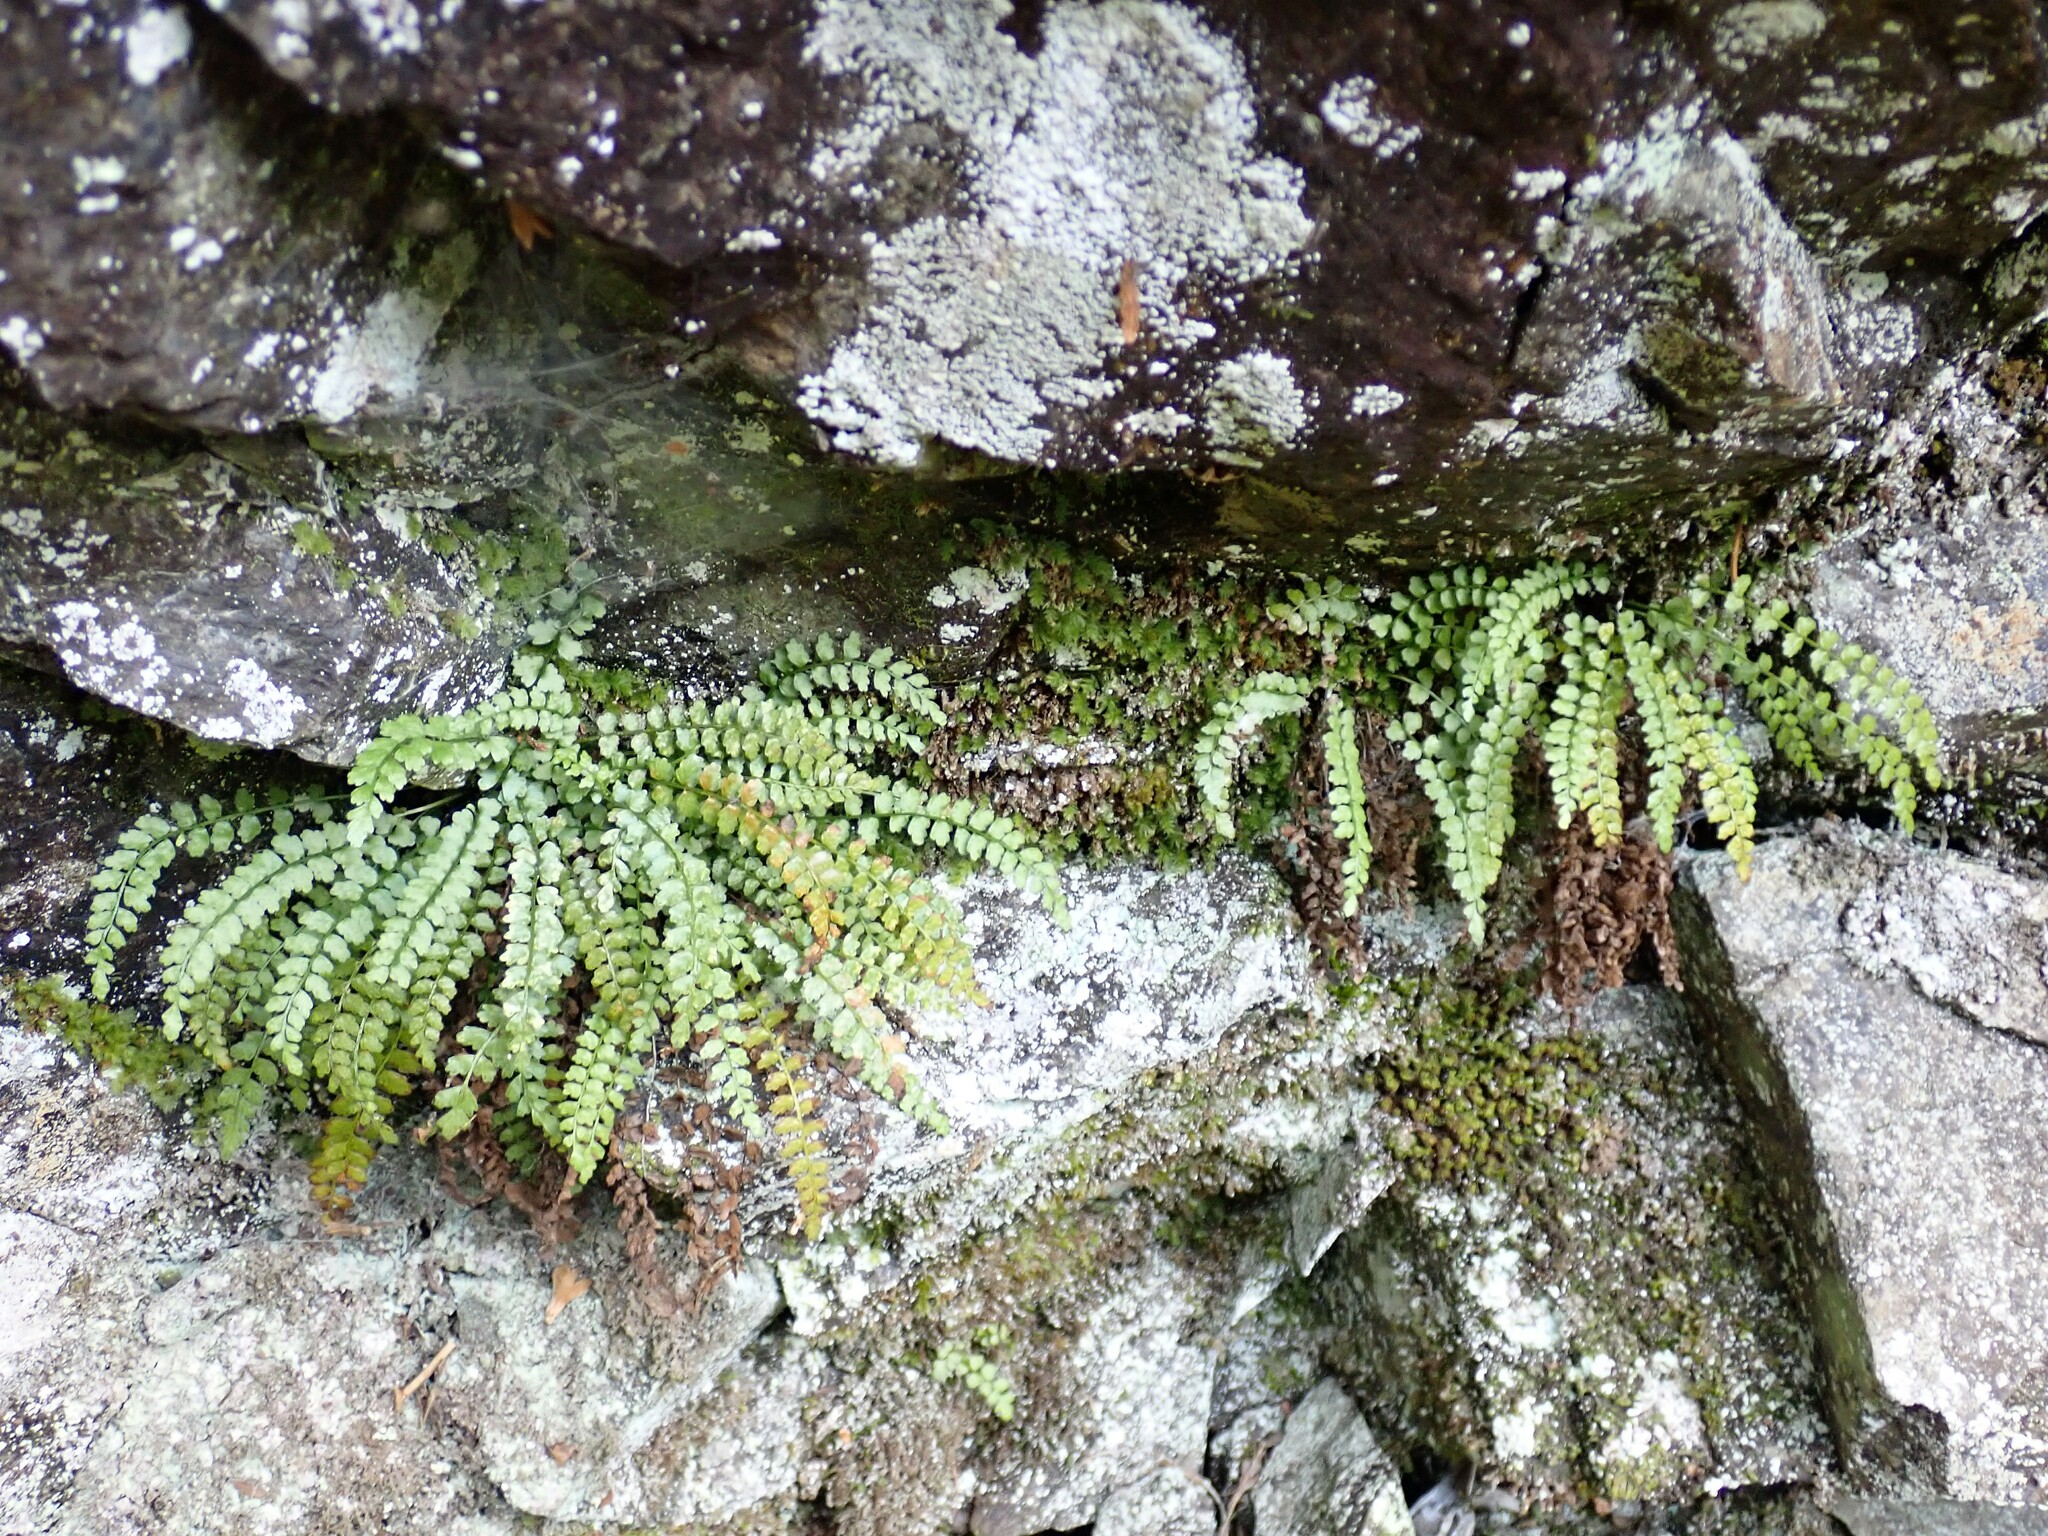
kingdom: Plantae
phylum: Tracheophyta
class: Polypodiopsida
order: Polypodiales
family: Aspleniaceae
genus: Asplenium
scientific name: Asplenium viride
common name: Green spleenwort
